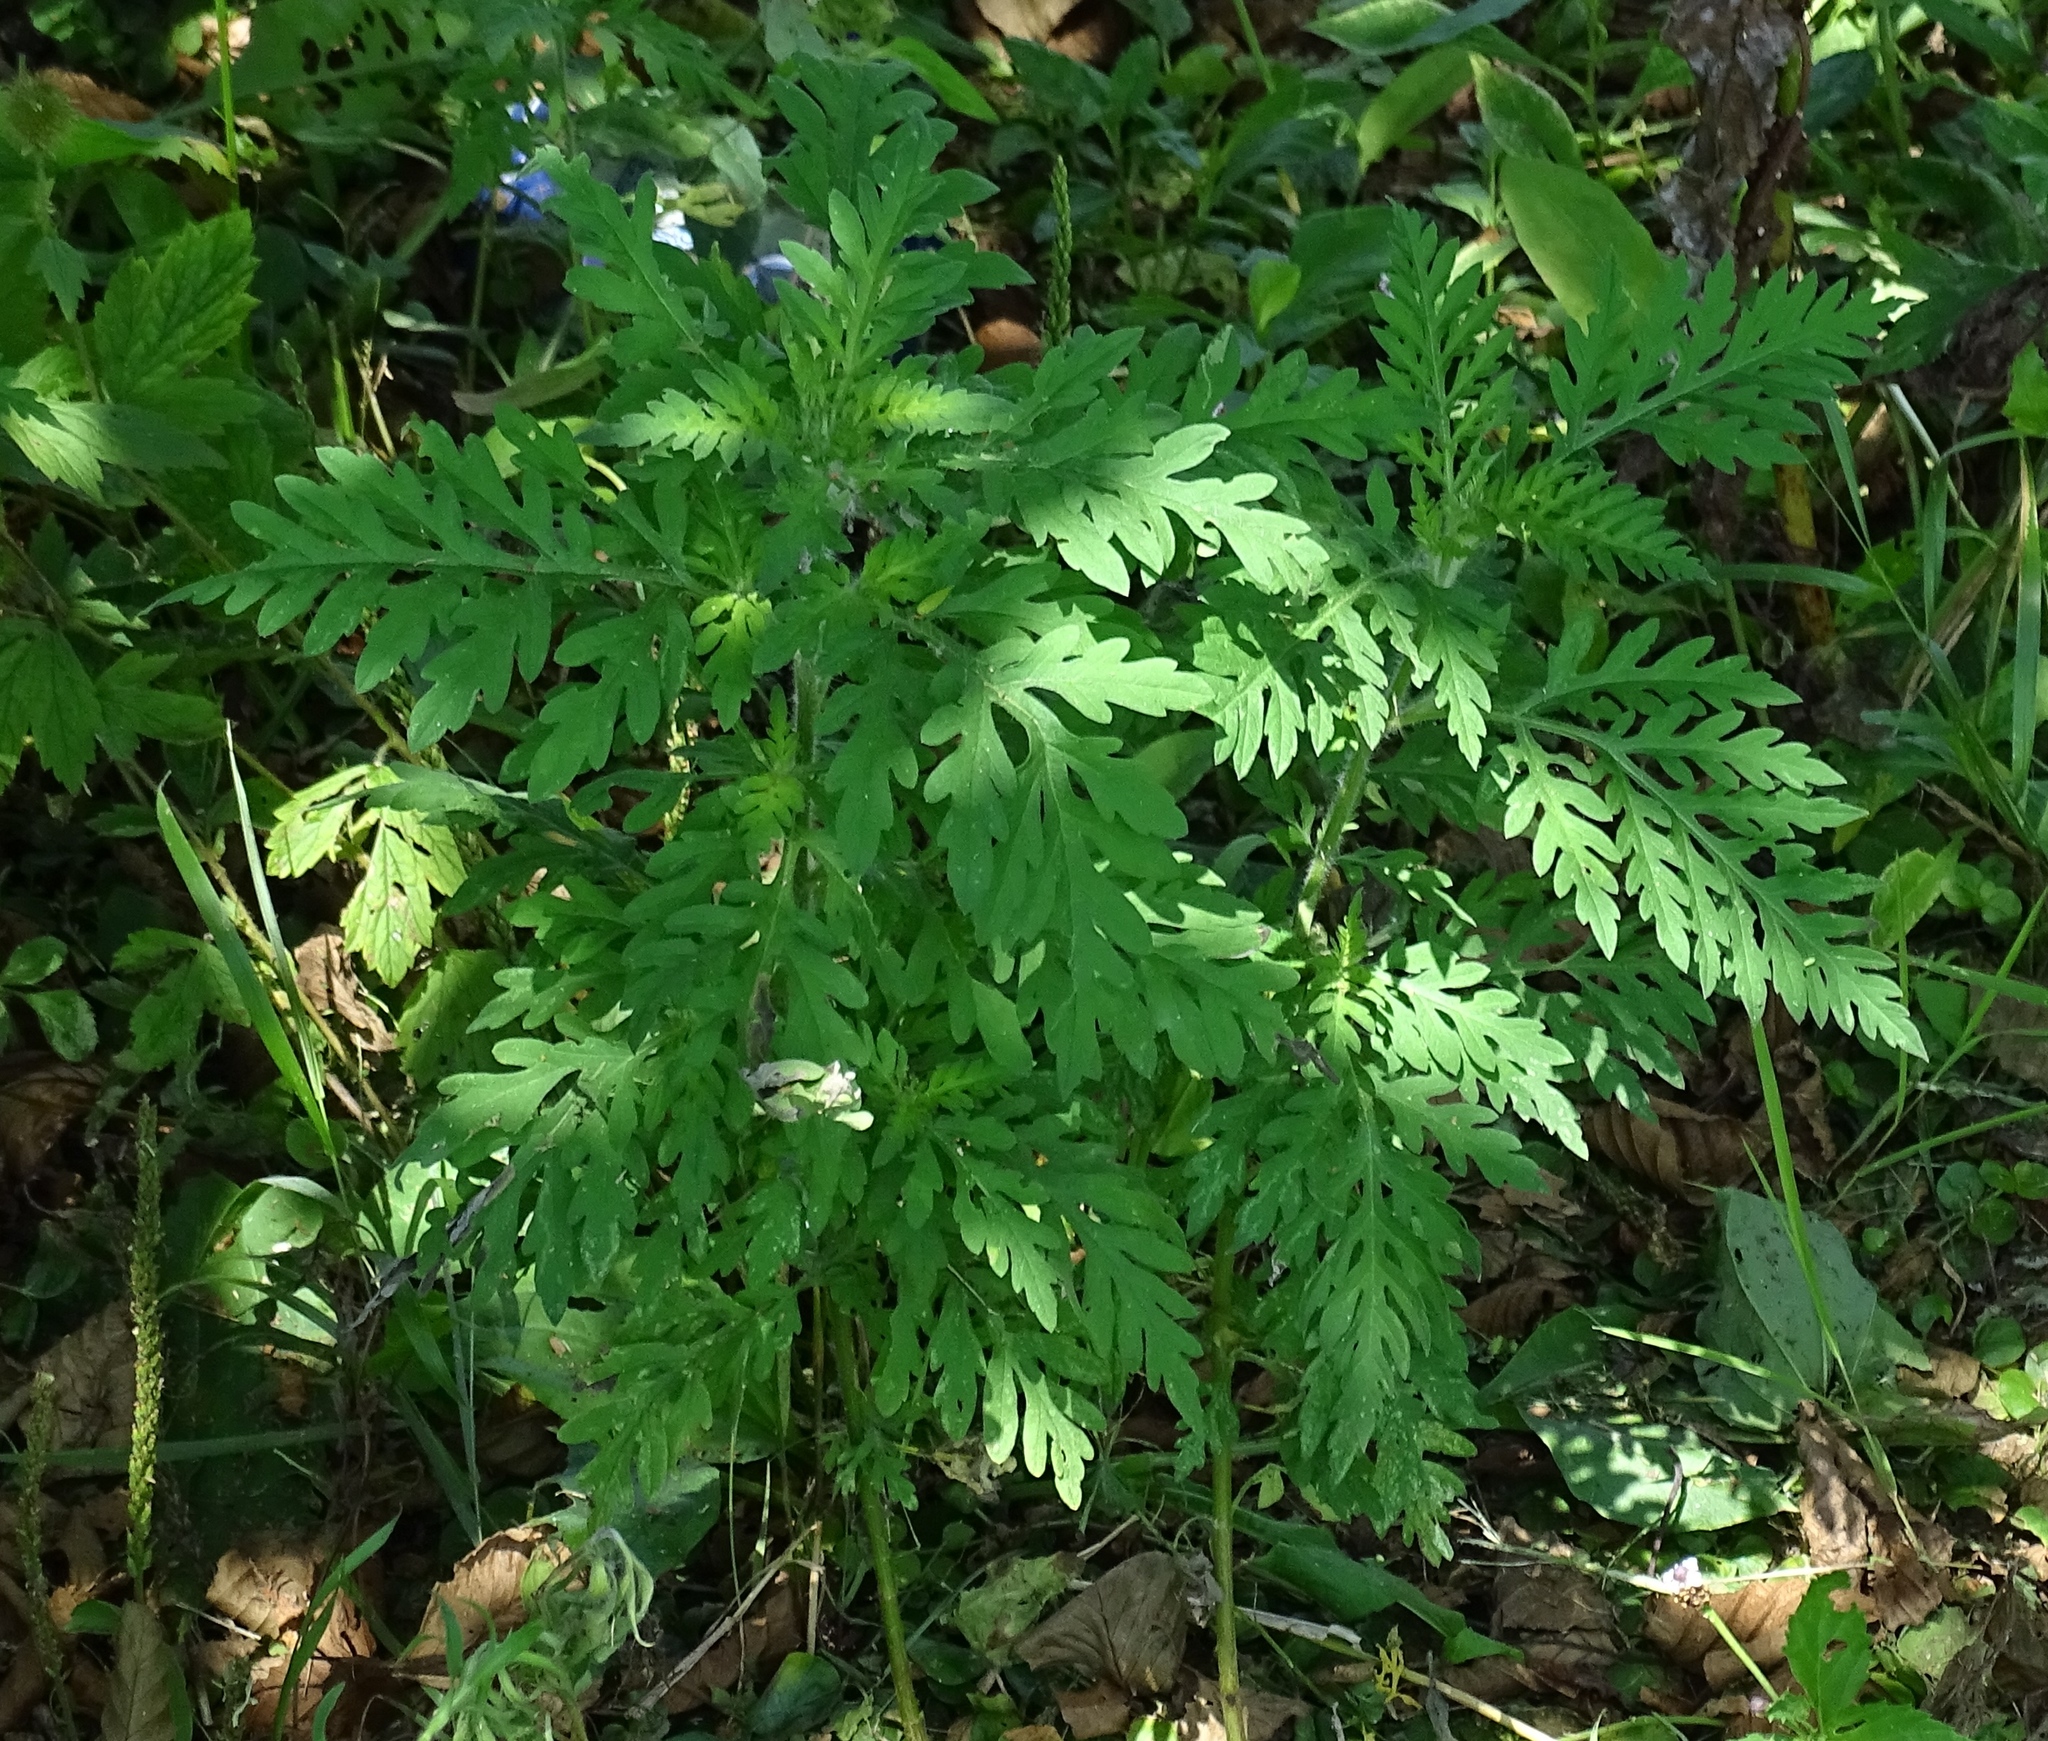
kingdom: Plantae
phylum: Tracheophyta
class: Magnoliopsida
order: Asterales
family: Asteraceae
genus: Ambrosia
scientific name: Ambrosia artemisiifolia
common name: Annual ragweed
